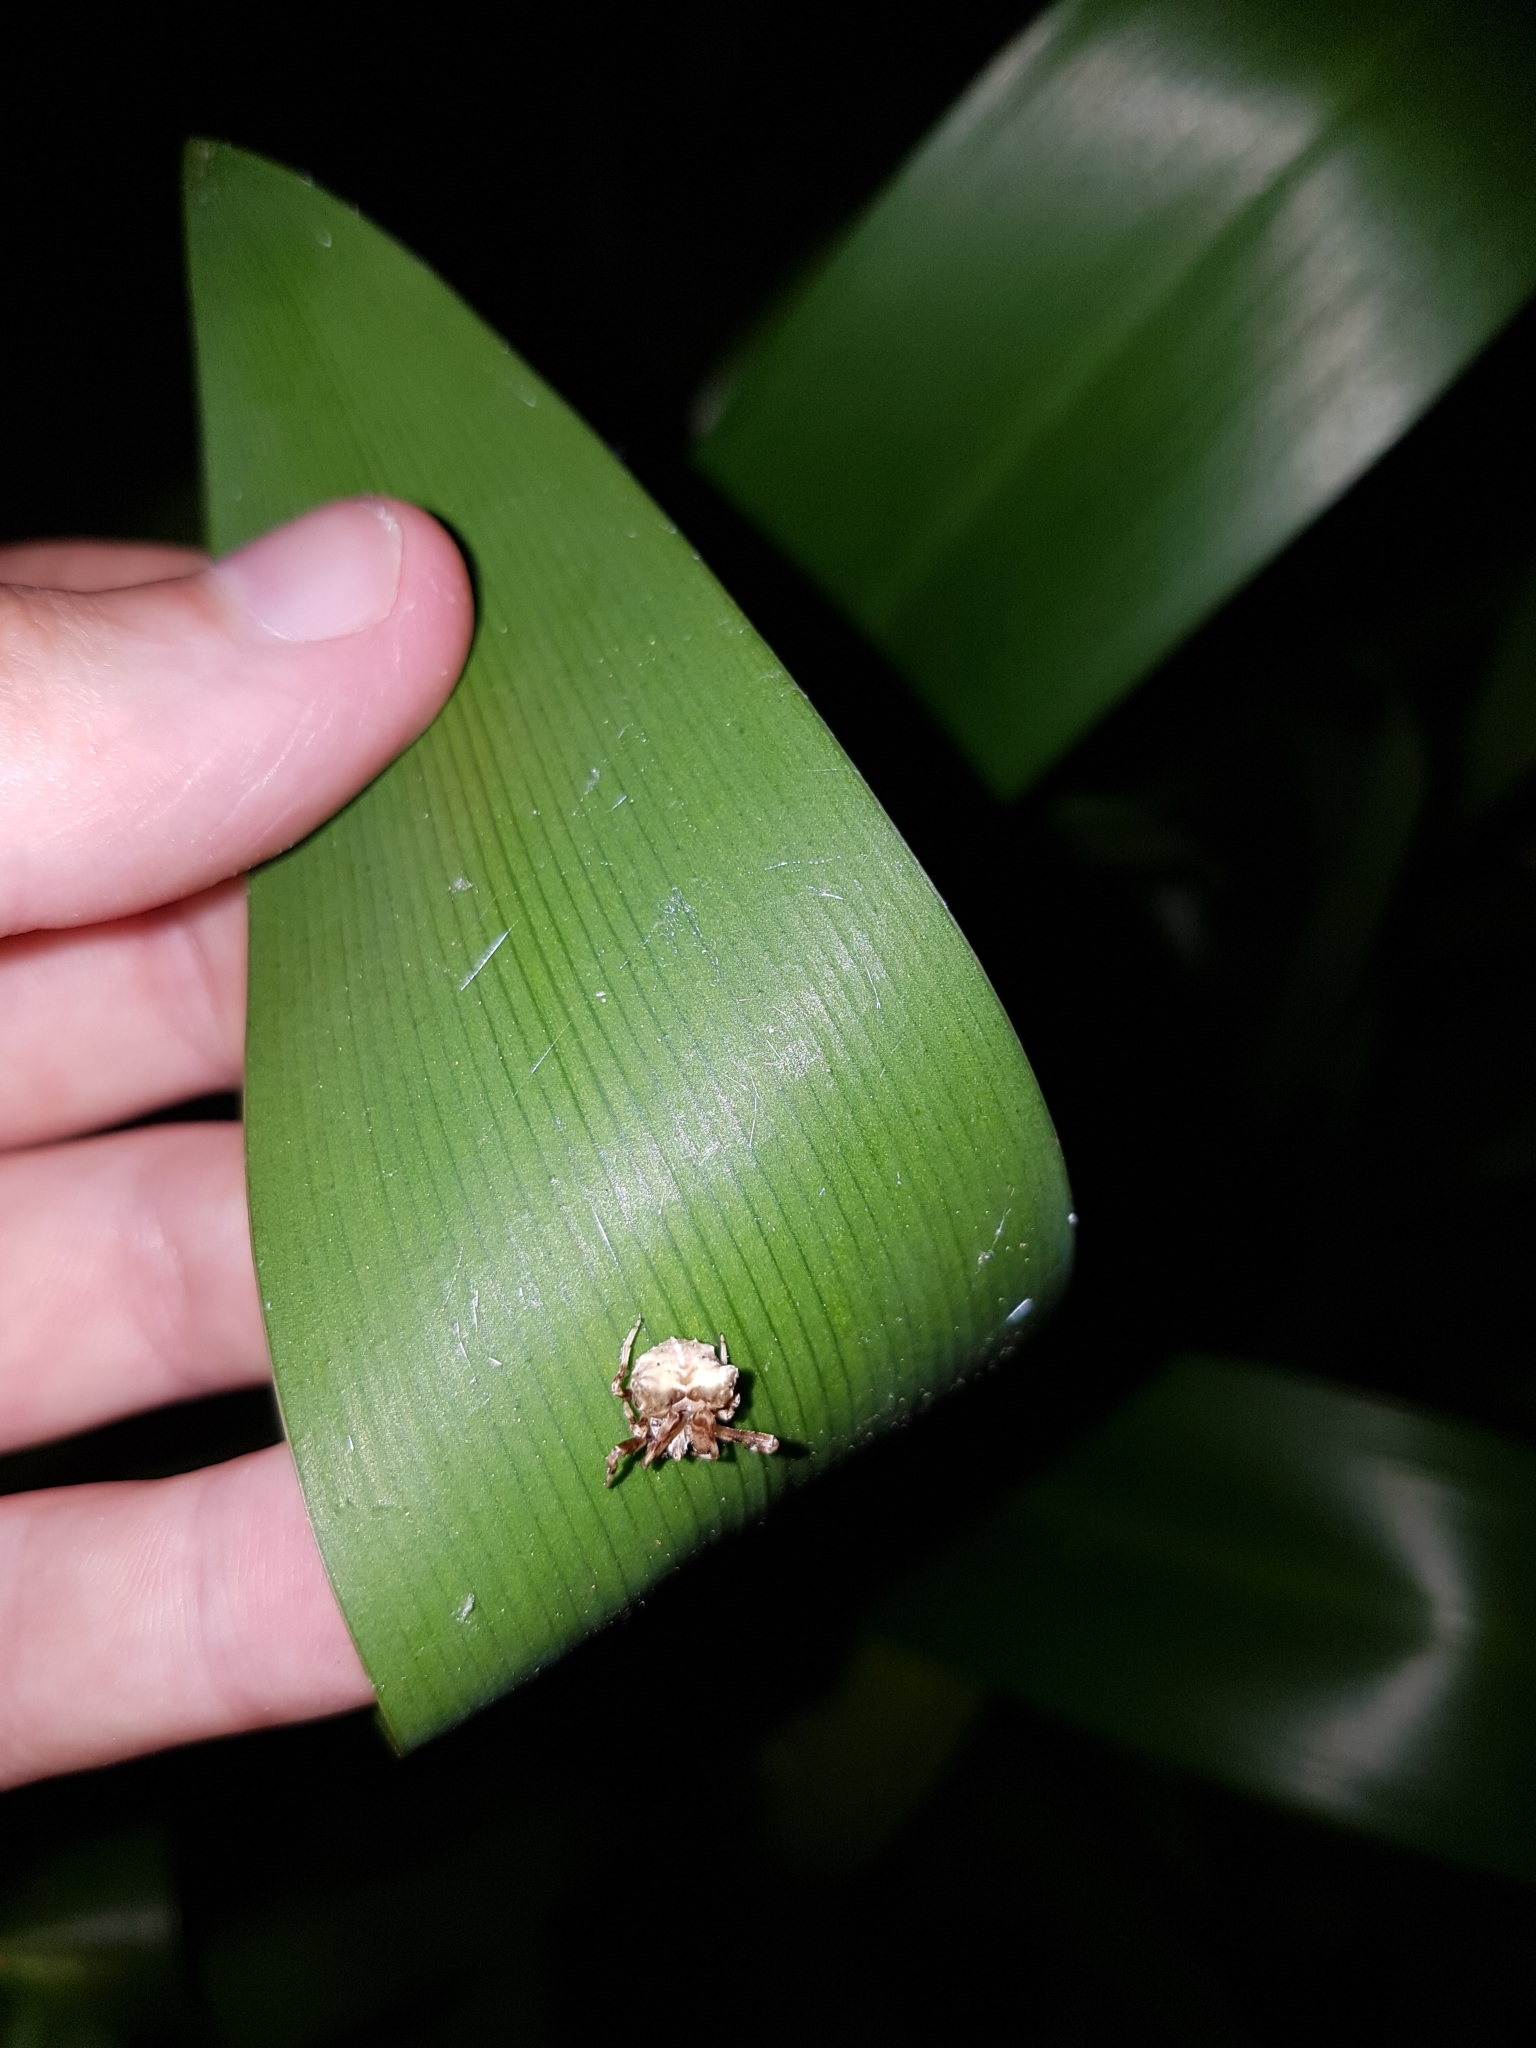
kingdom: Animalia
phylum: Arthropoda
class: Arachnida
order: Araneae
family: Araneidae
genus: Celaenia
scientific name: Celaenia olivacea
